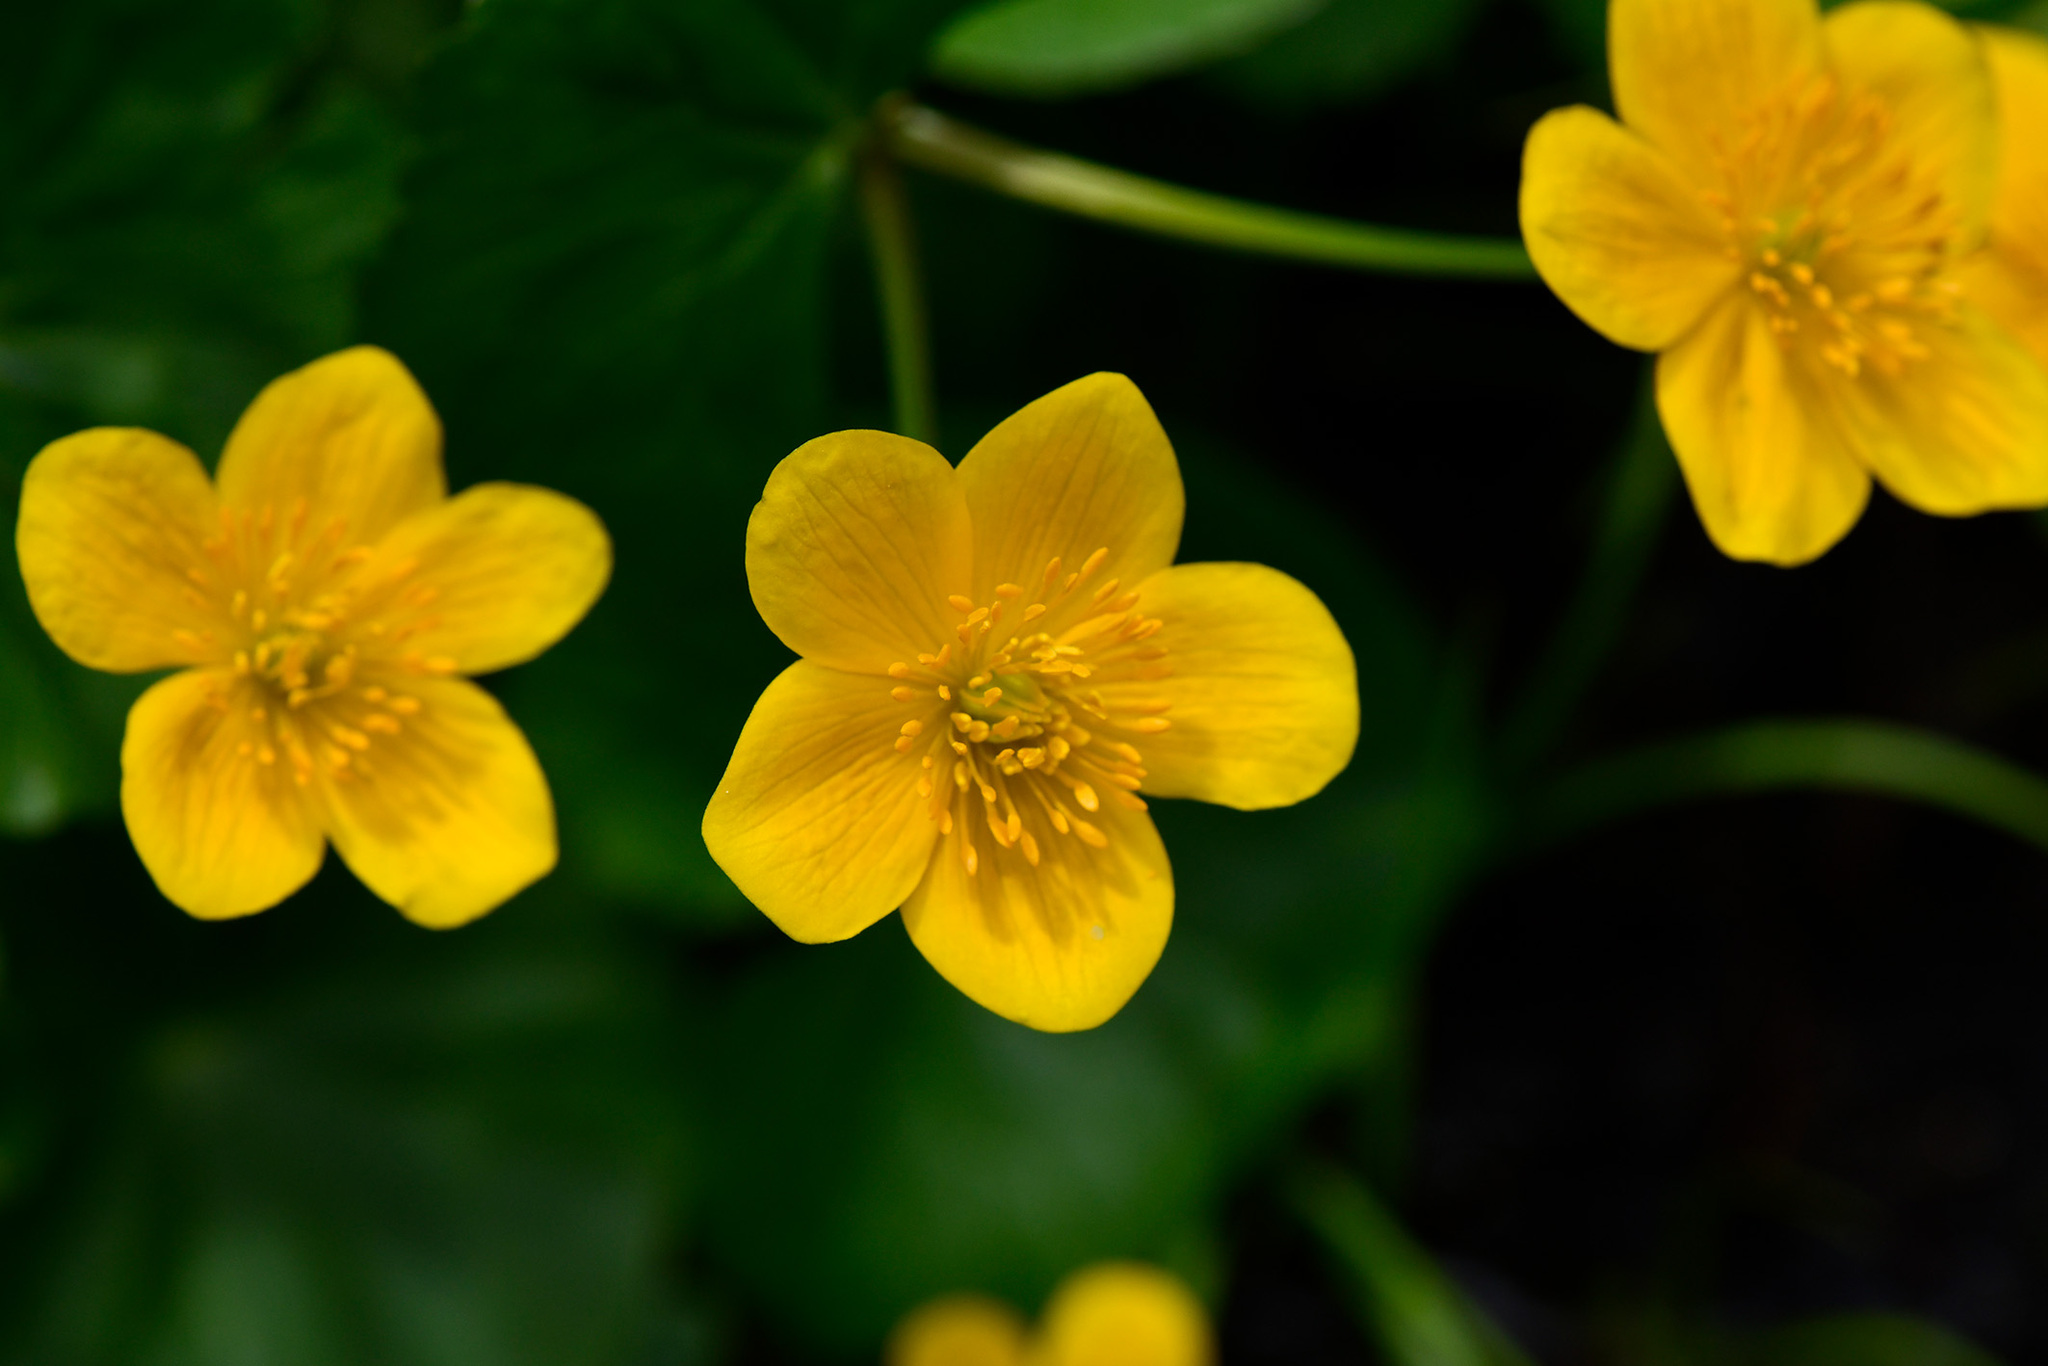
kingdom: Plantae
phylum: Tracheophyta
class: Magnoliopsida
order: Ranunculales
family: Ranunculaceae
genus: Caltha
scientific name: Caltha palustris
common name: Marsh marigold
